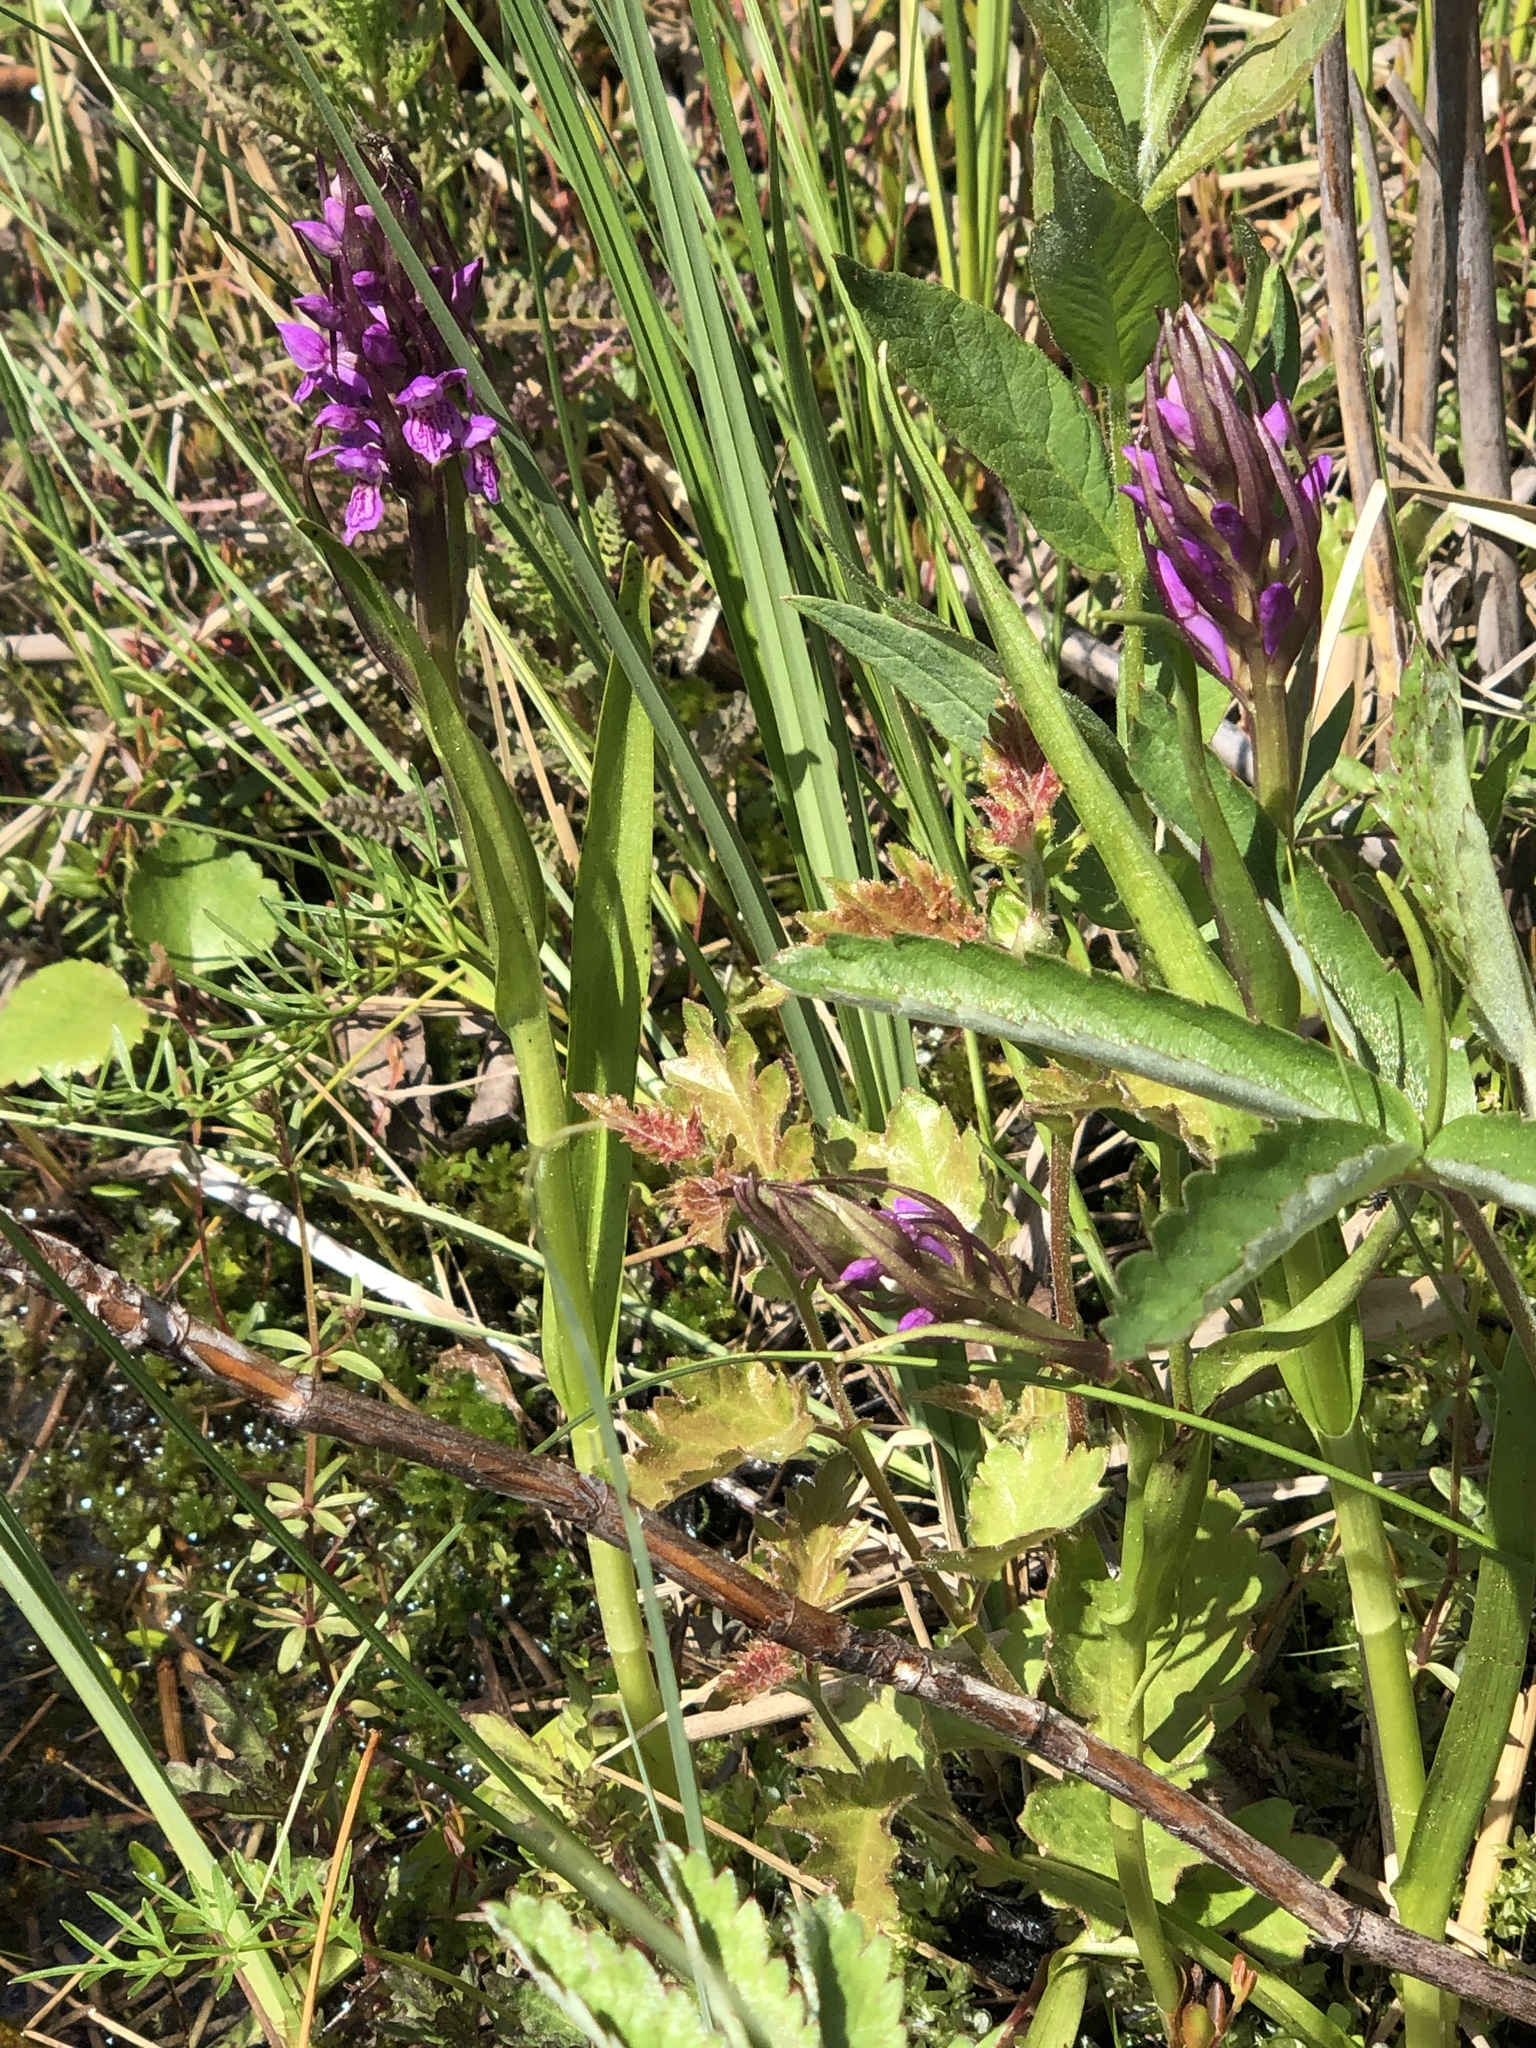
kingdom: Plantae
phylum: Tracheophyta
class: Liliopsida
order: Asparagales
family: Orchidaceae
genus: Dactylorhiza
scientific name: Dactylorhiza incarnata
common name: Early marsh-orchid
